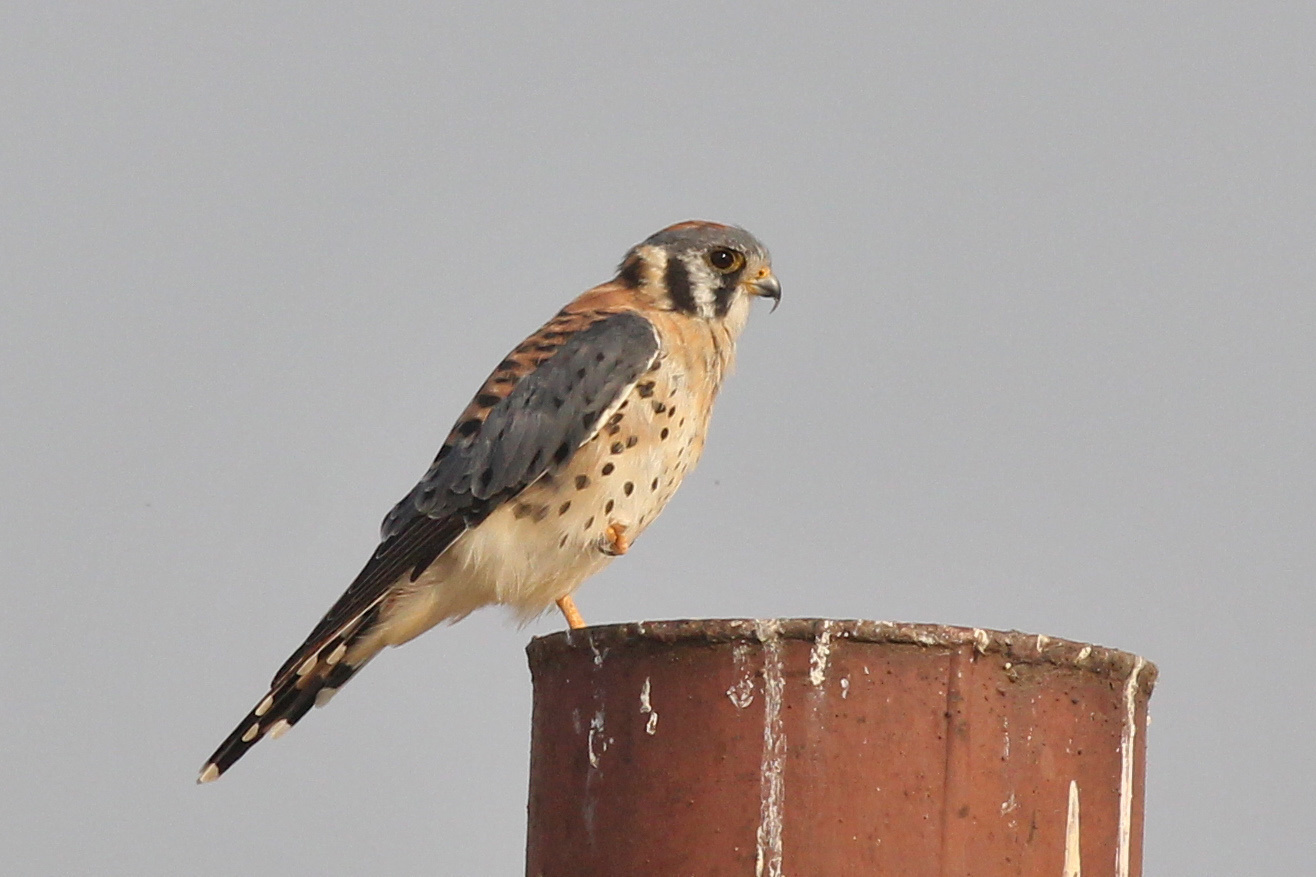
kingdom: Animalia
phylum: Chordata
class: Aves
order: Falconiformes
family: Falconidae
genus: Falco
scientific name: Falco sparverius
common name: American kestrel
